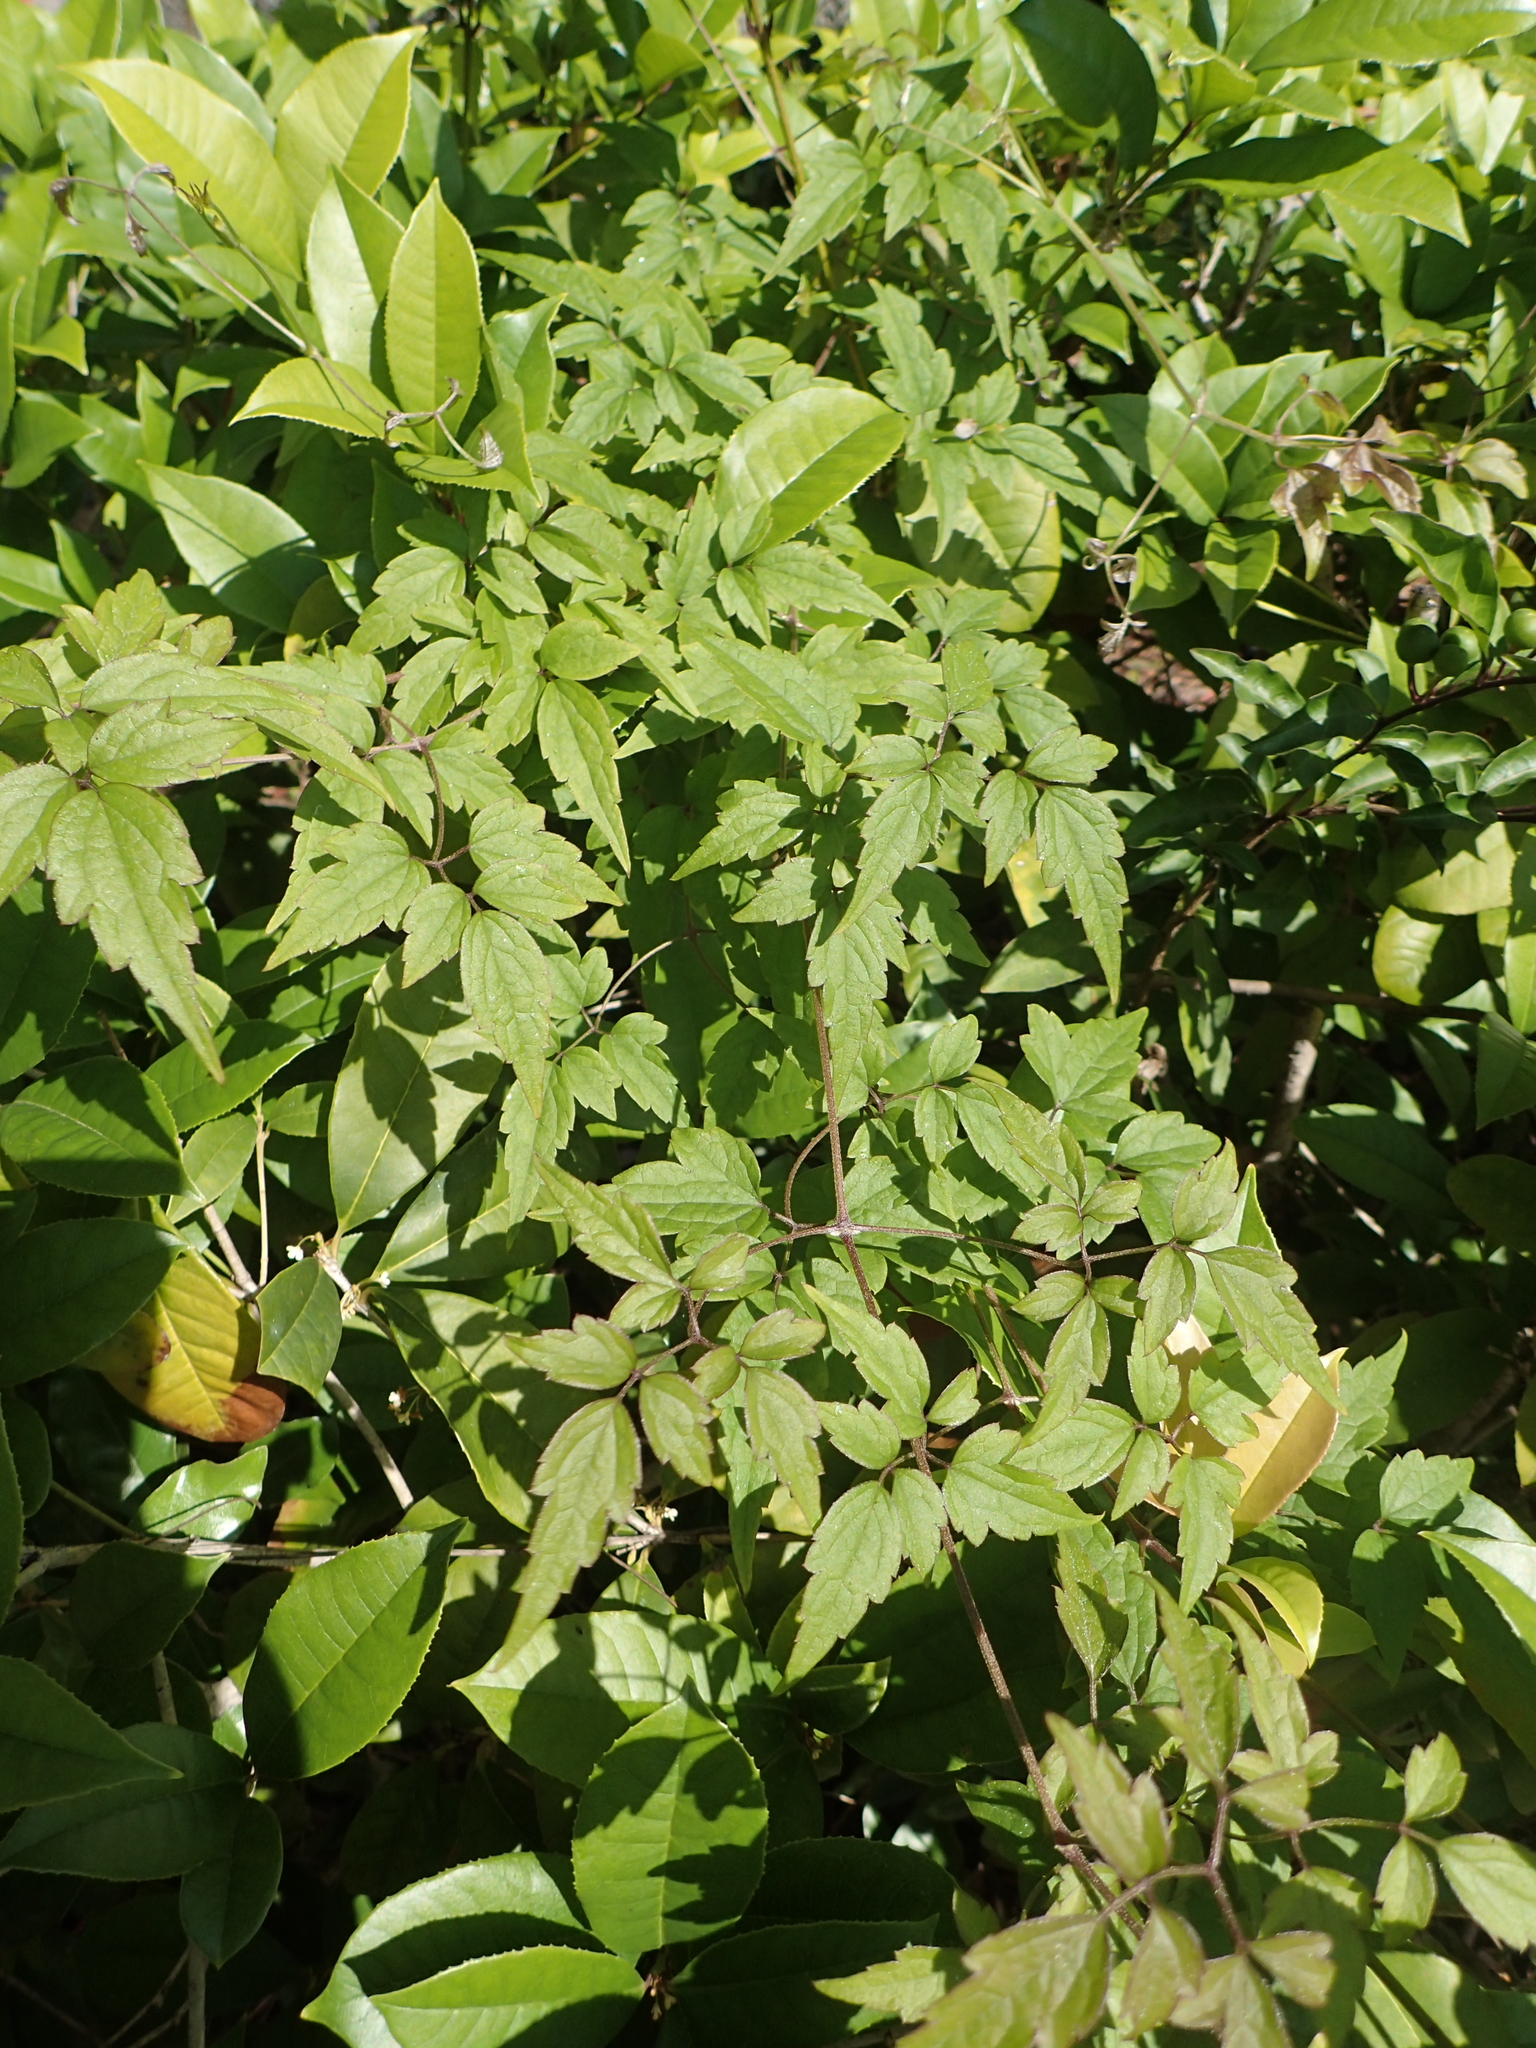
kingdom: Plantae
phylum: Tracheophyta
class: Magnoliopsida
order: Ranunculales
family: Ranunculaceae
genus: Clematis
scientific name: Clematis grata
